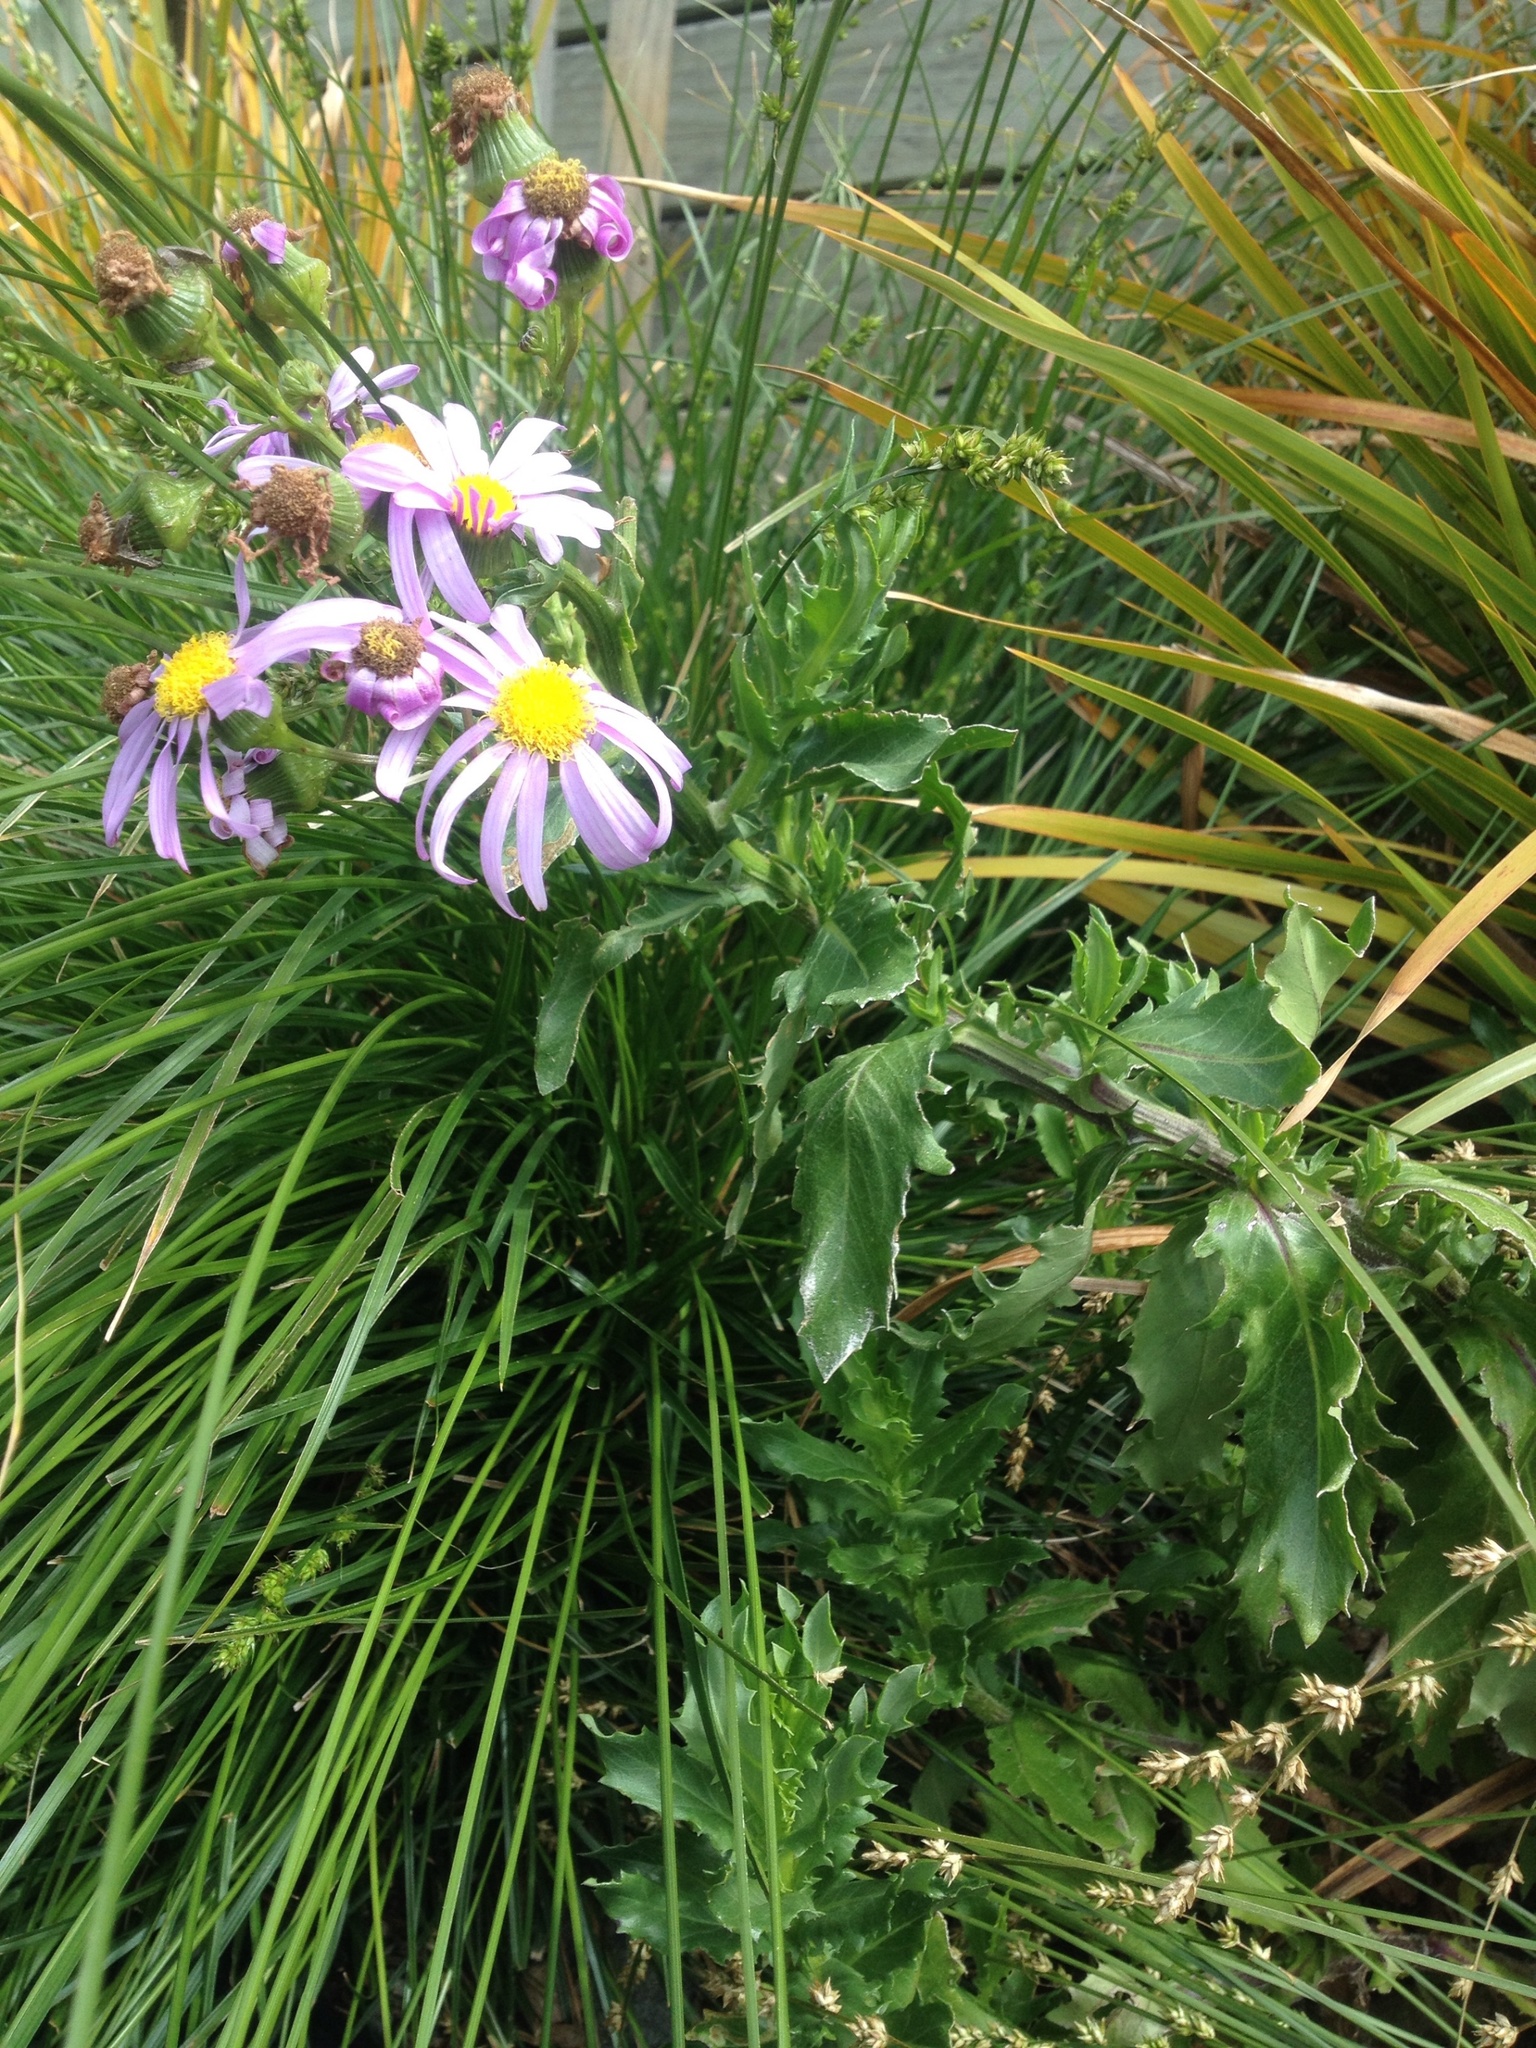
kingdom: Plantae
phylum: Tracheophyta
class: Magnoliopsida
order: Asterales
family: Asteraceae
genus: Senecio
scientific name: Senecio glastifolius
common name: Woad-leaved ragwort
